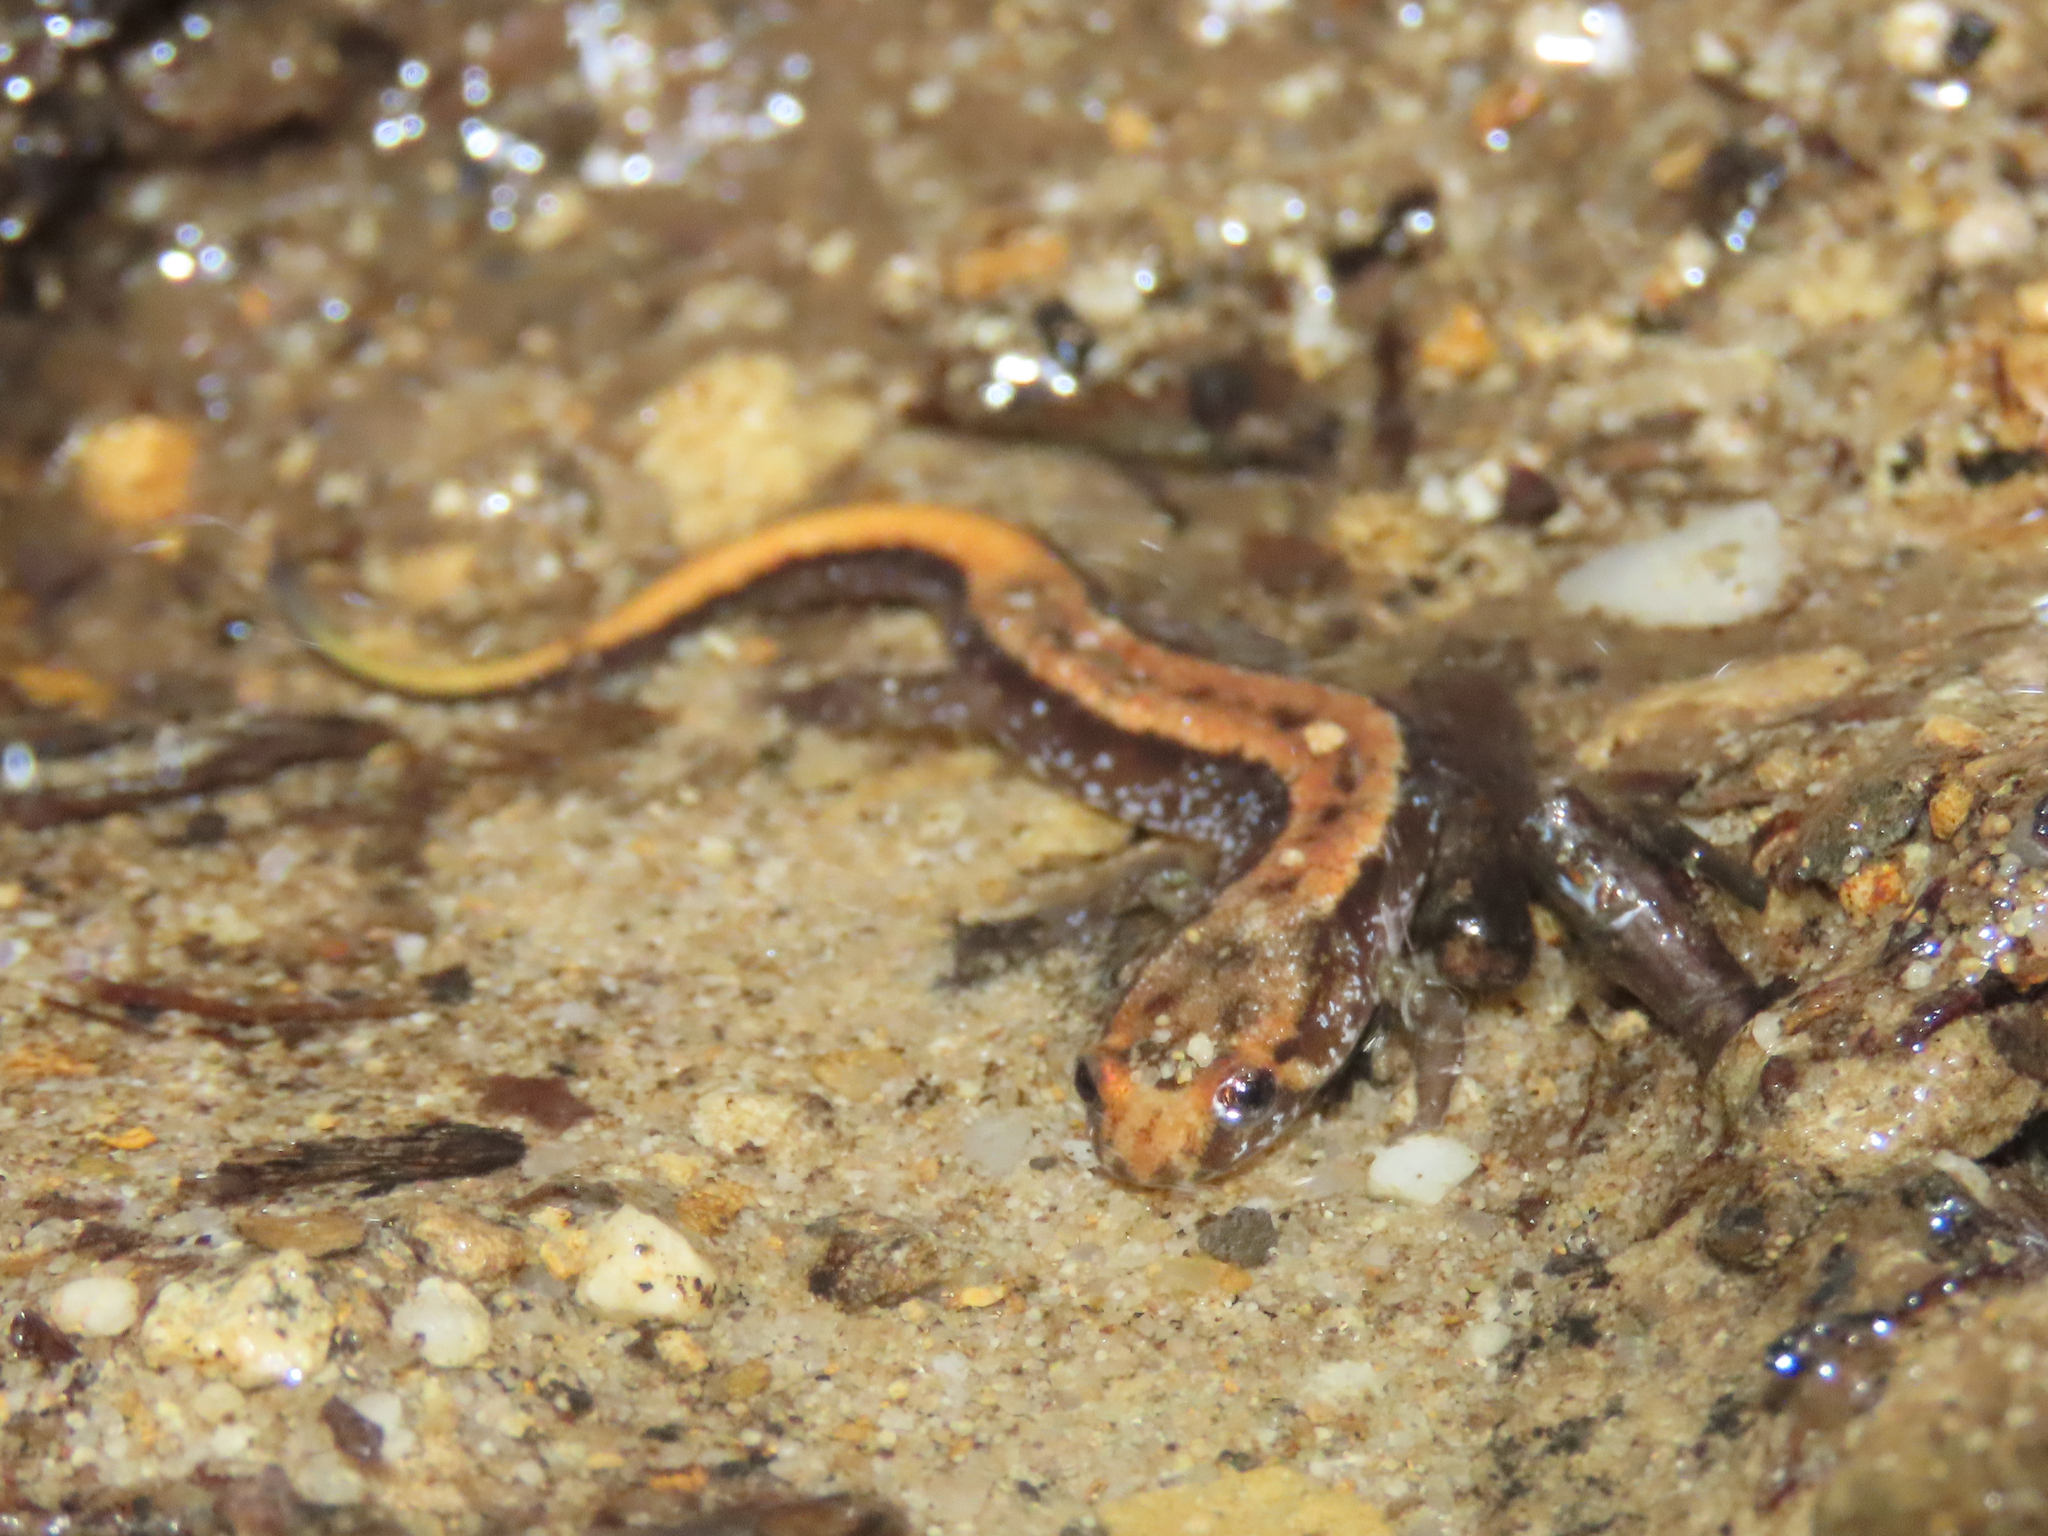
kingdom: Animalia
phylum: Chordata
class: Amphibia
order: Caudata
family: Plethodontidae
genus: Desmognathus
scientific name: Desmognathus ochrophaeus
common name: Allegheny mountain dusky salamander
